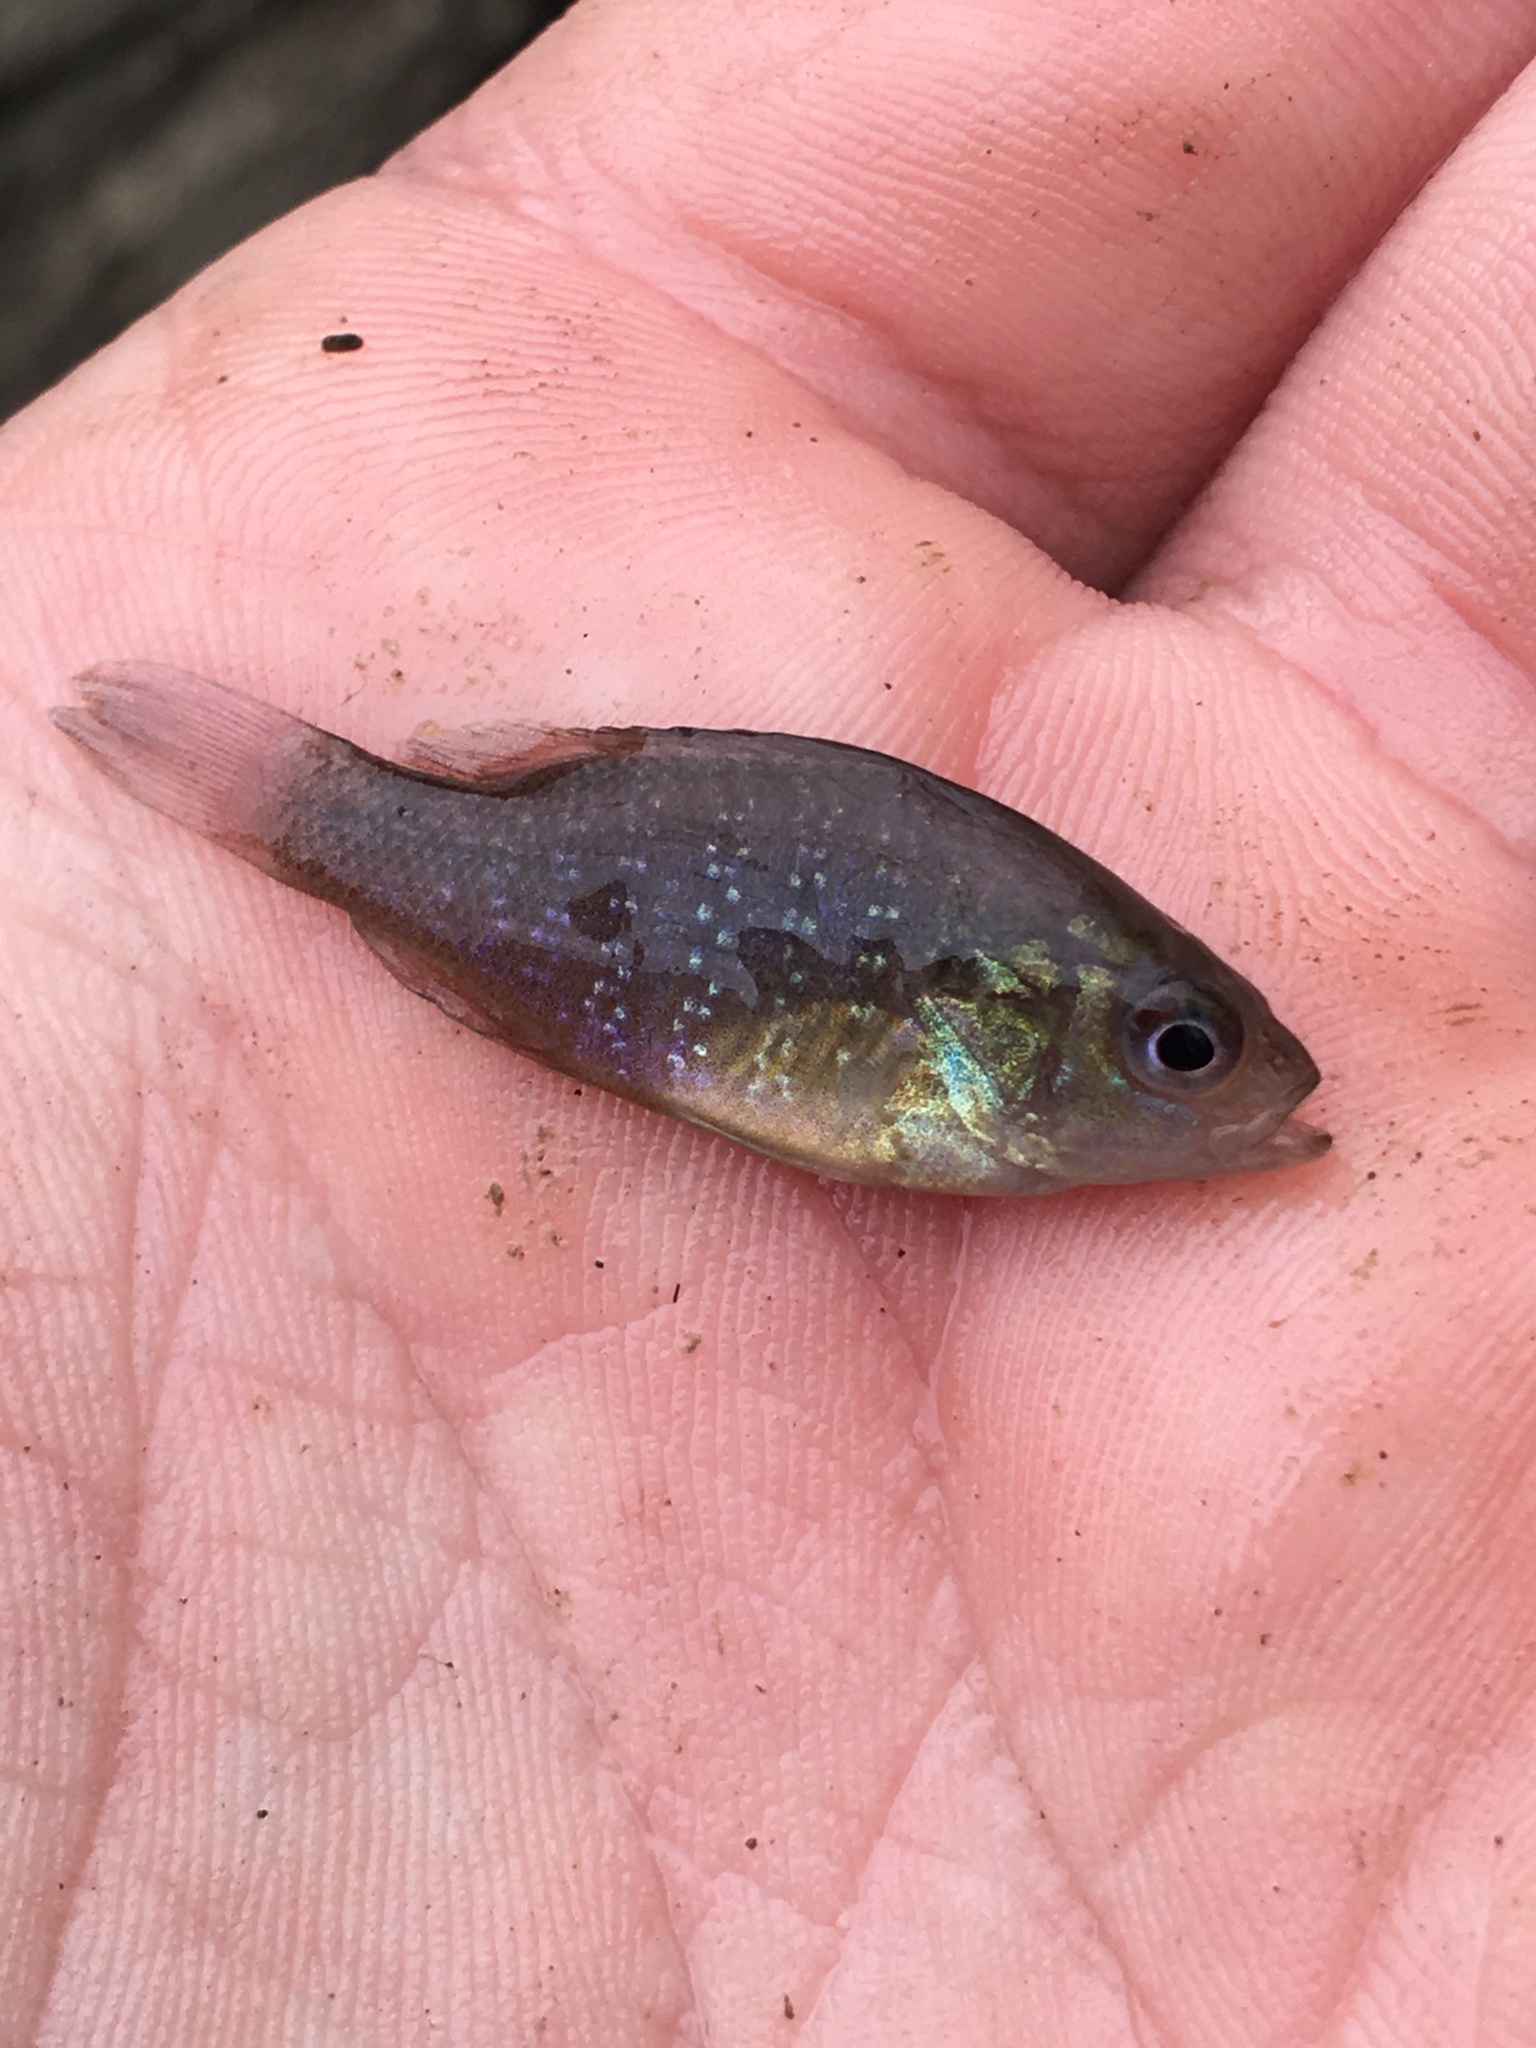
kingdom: Animalia
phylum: Chordata
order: Perciformes
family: Centrarchidae
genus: Lepomis
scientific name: Lepomis cyanellus
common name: Green sunfish
